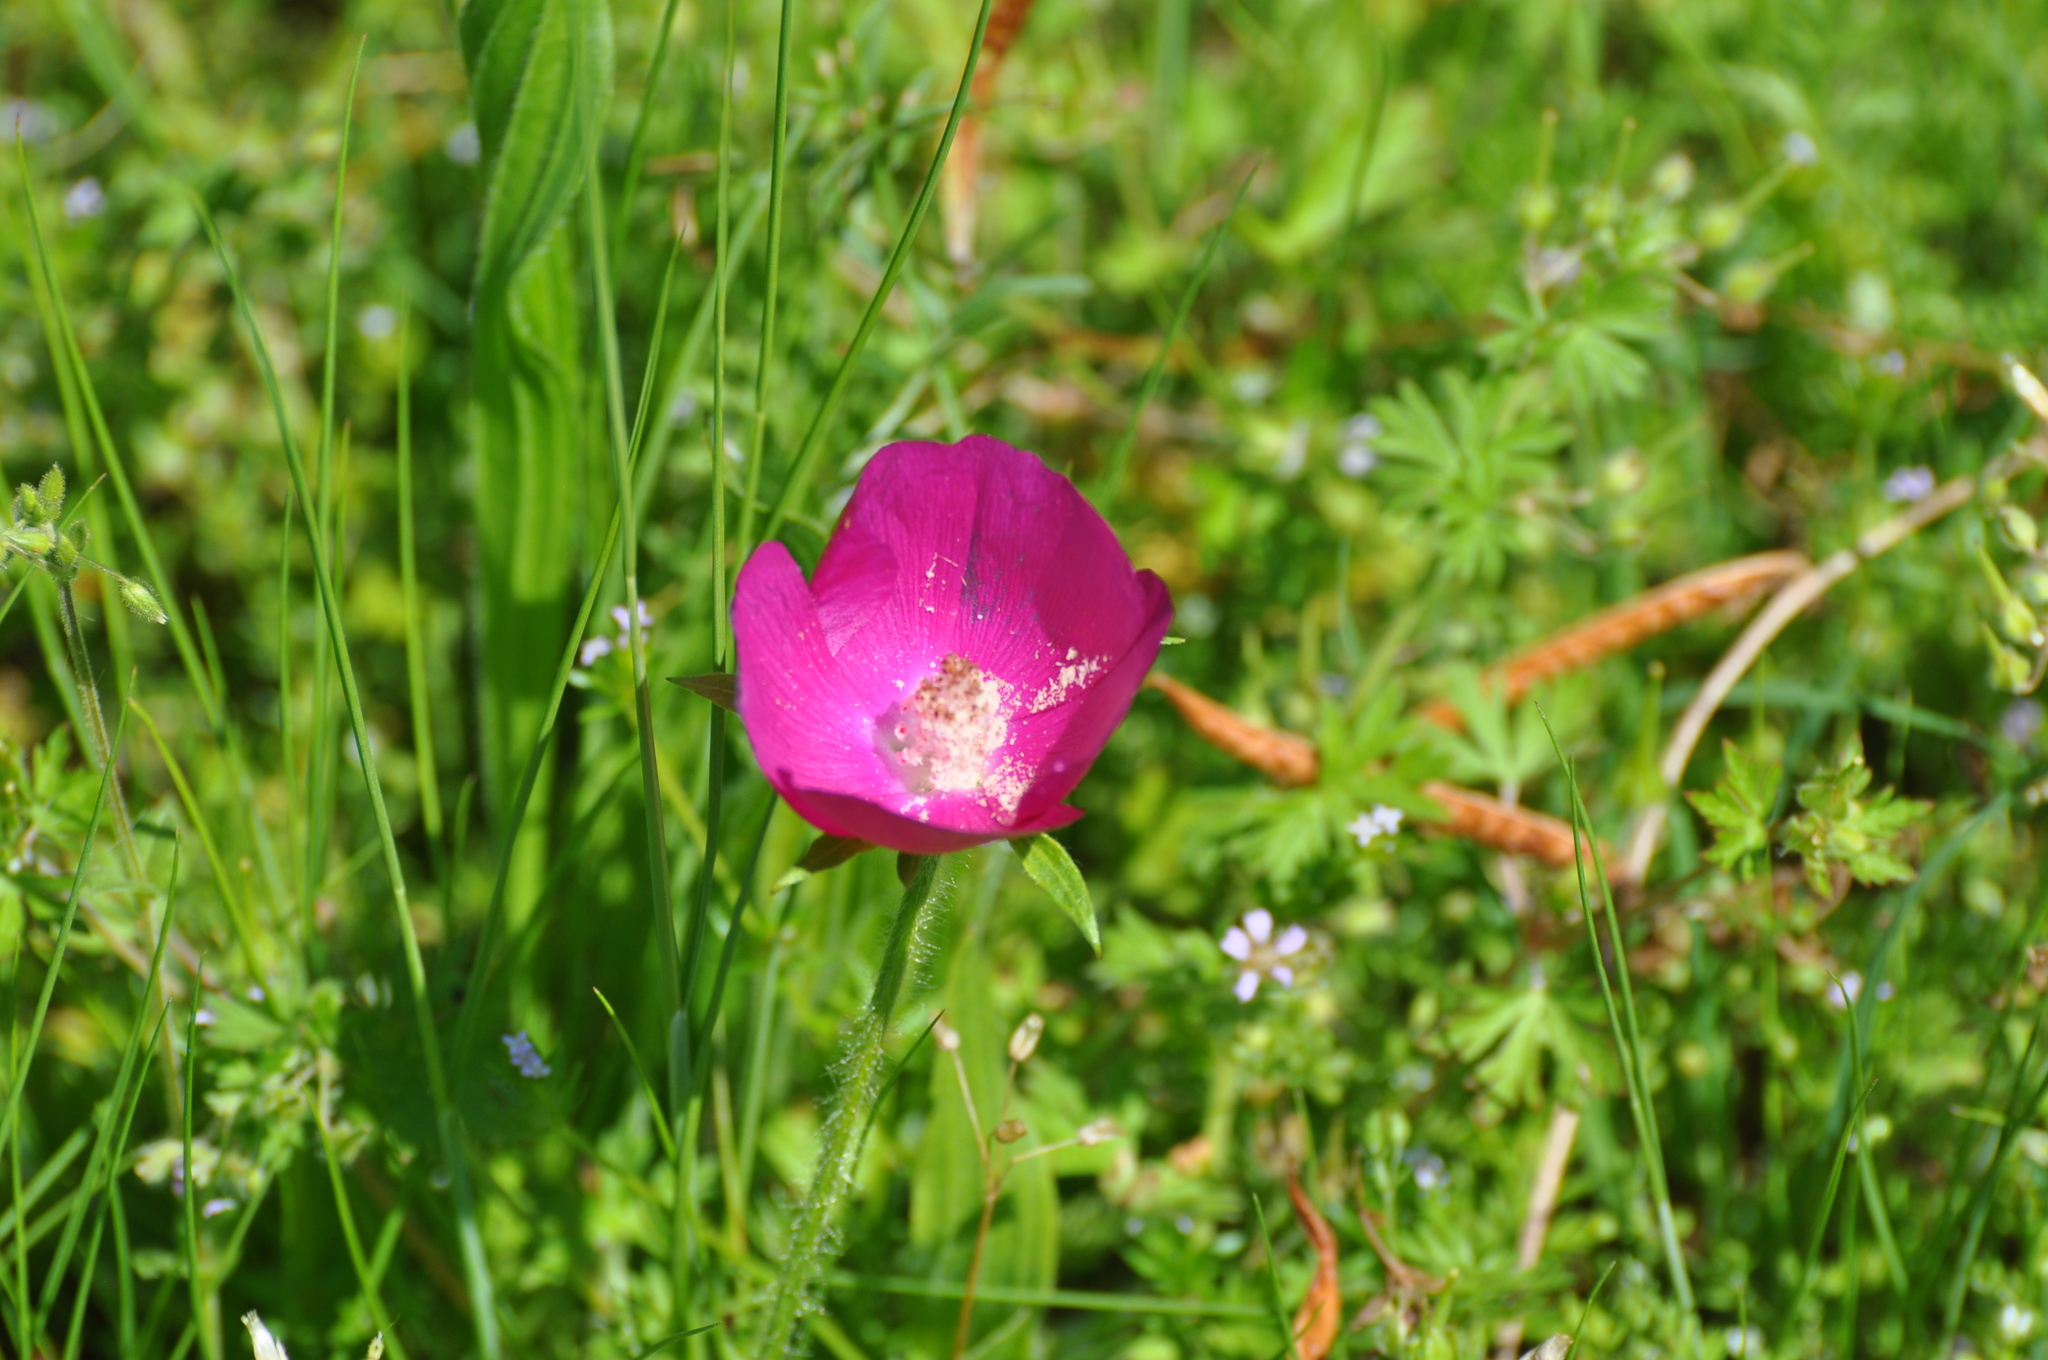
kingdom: Plantae
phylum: Tracheophyta
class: Magnoliopsida
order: Malvales
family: Malvaceae
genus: Callirhoe
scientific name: Callirhoe involucrata
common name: Purple poppy-mallow
